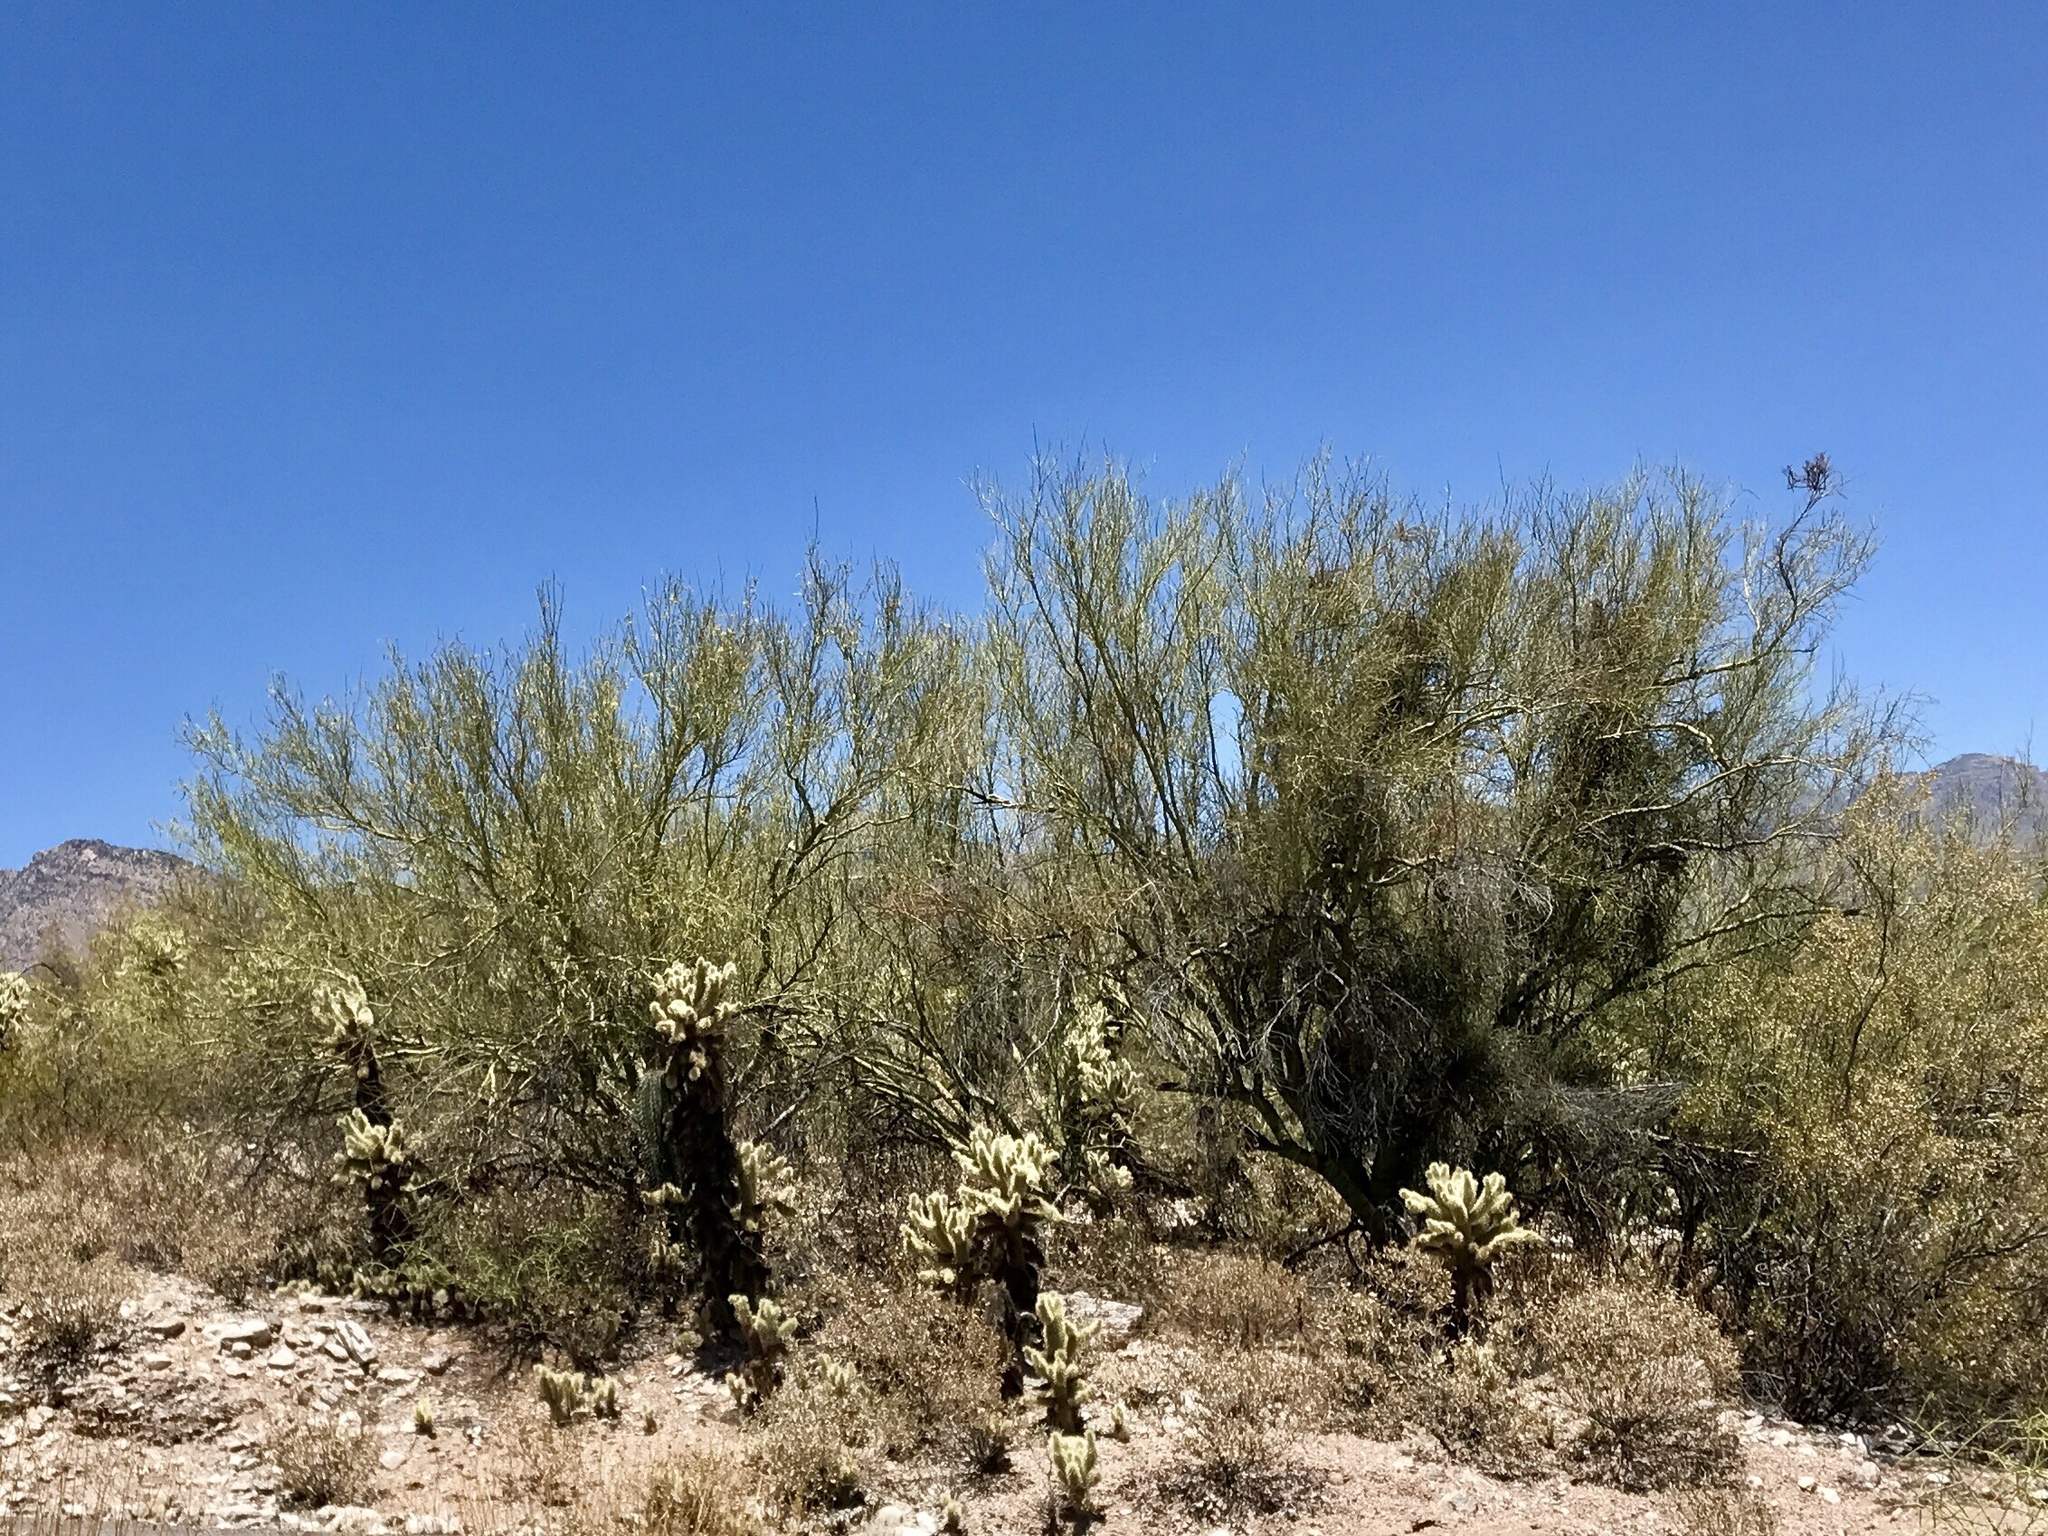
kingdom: Plantae
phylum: Tracheophyta
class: Magnoliopsida
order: Fabales
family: Fabaceae
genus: Parkinsonia
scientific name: Parkinsonia microphylla
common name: Yellow paloverde
